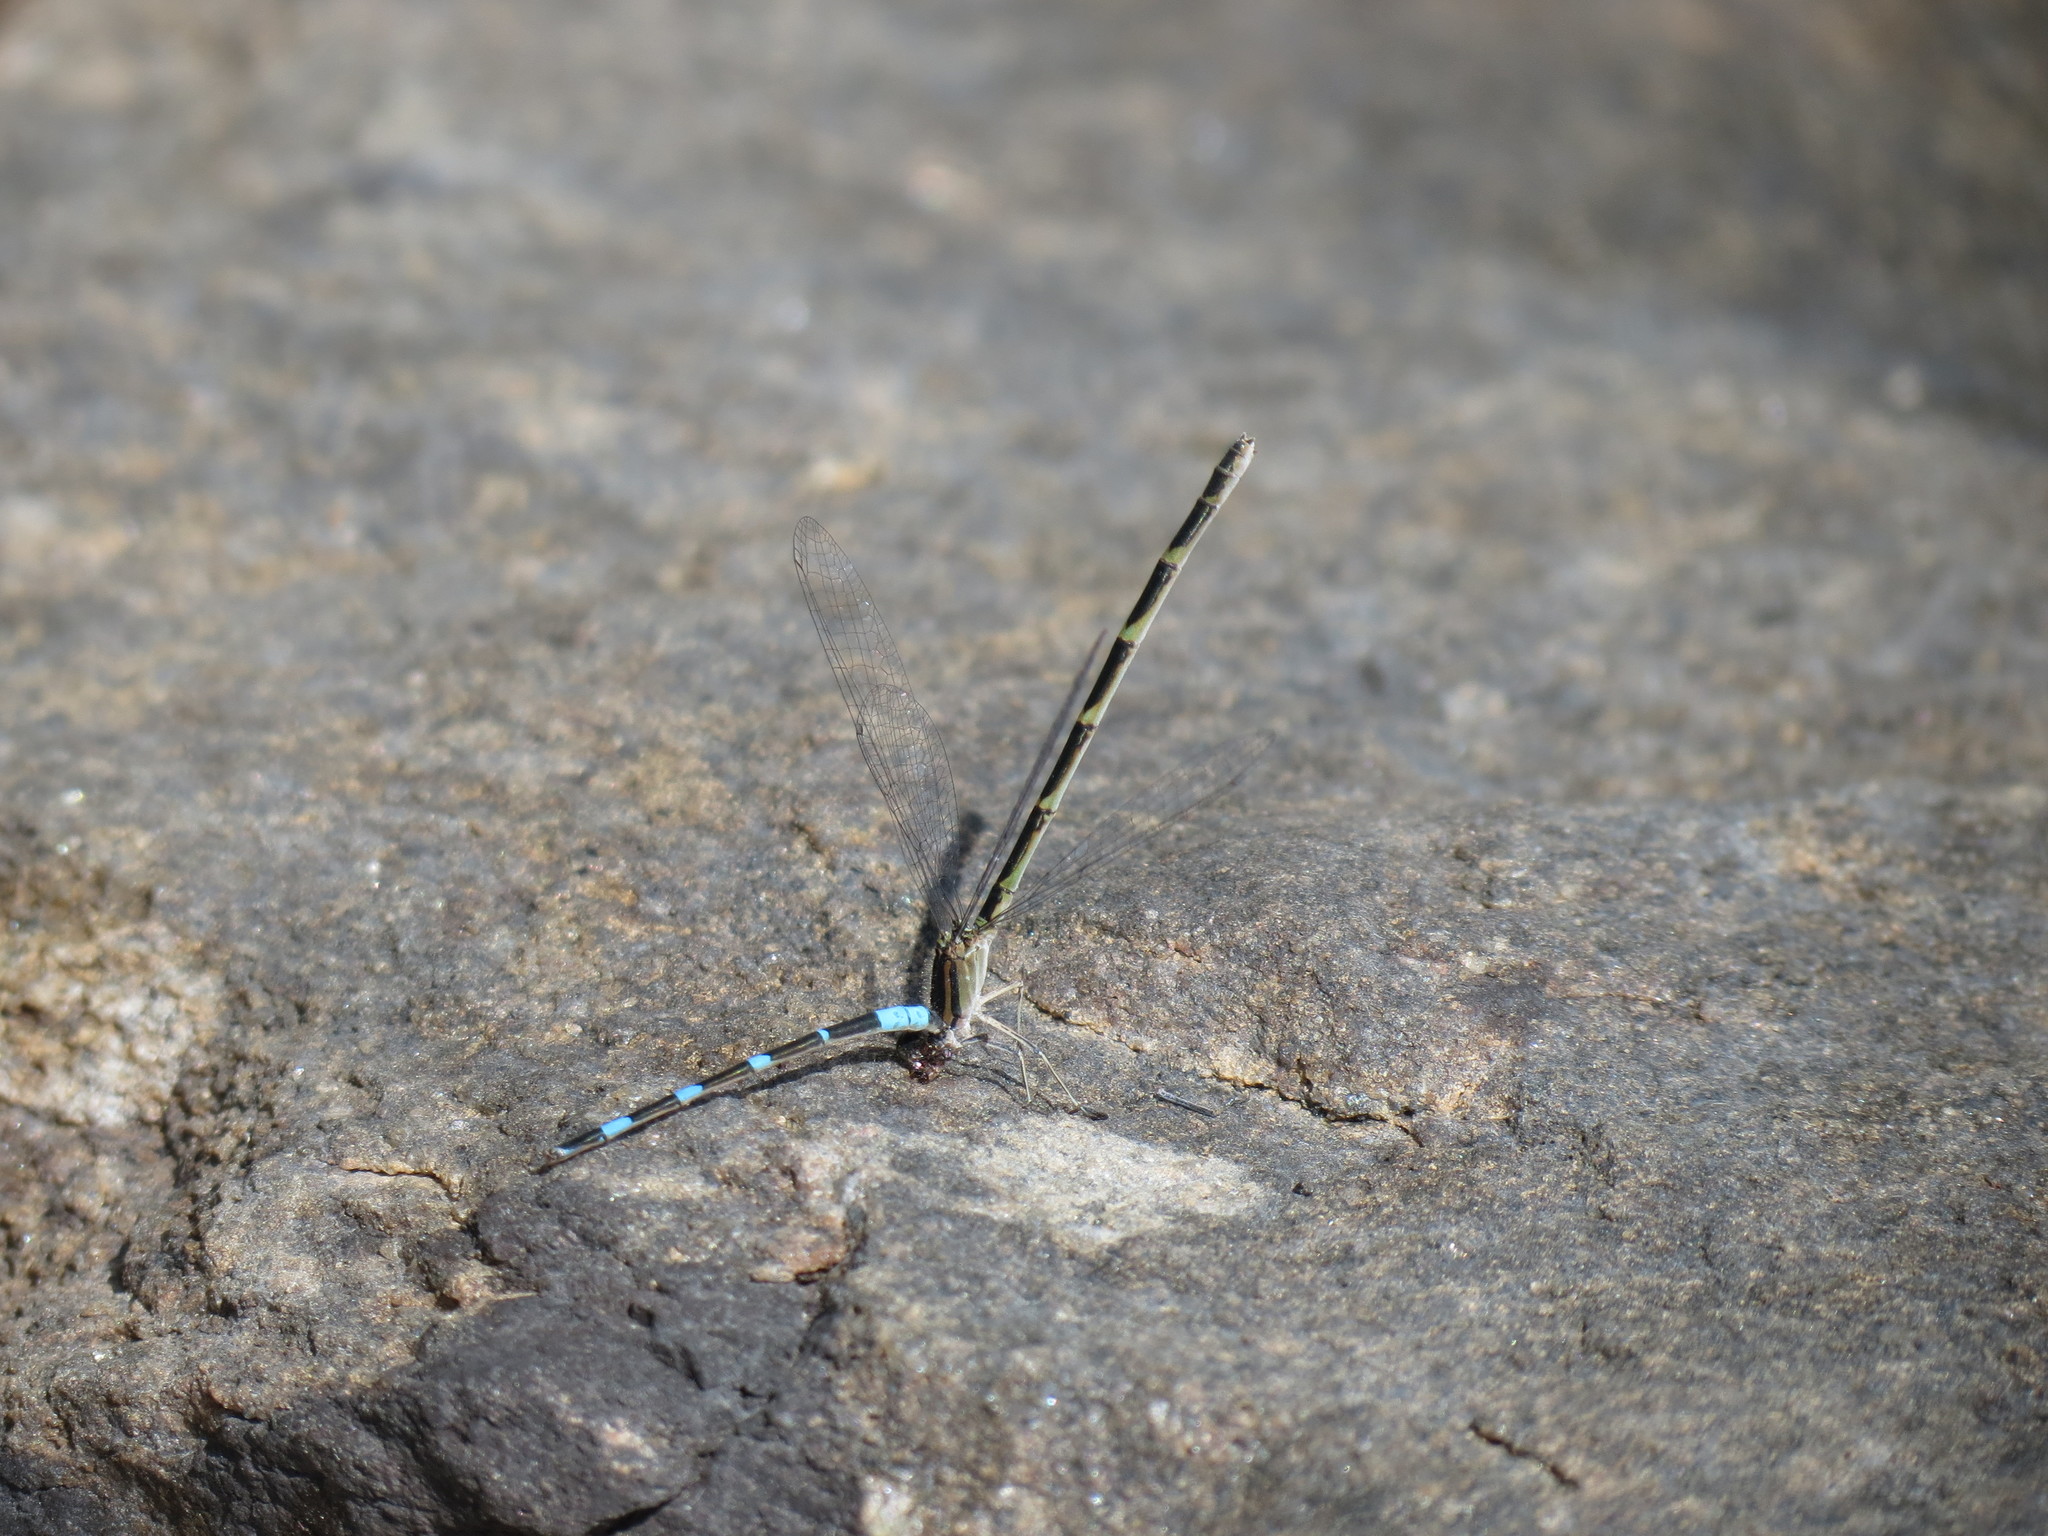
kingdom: Animalia
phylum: Arthropoda
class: Insecta
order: Odonata
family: Coenagrionidae
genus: Enallagma
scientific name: Enallagma carunculatum
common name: Tule bluet
